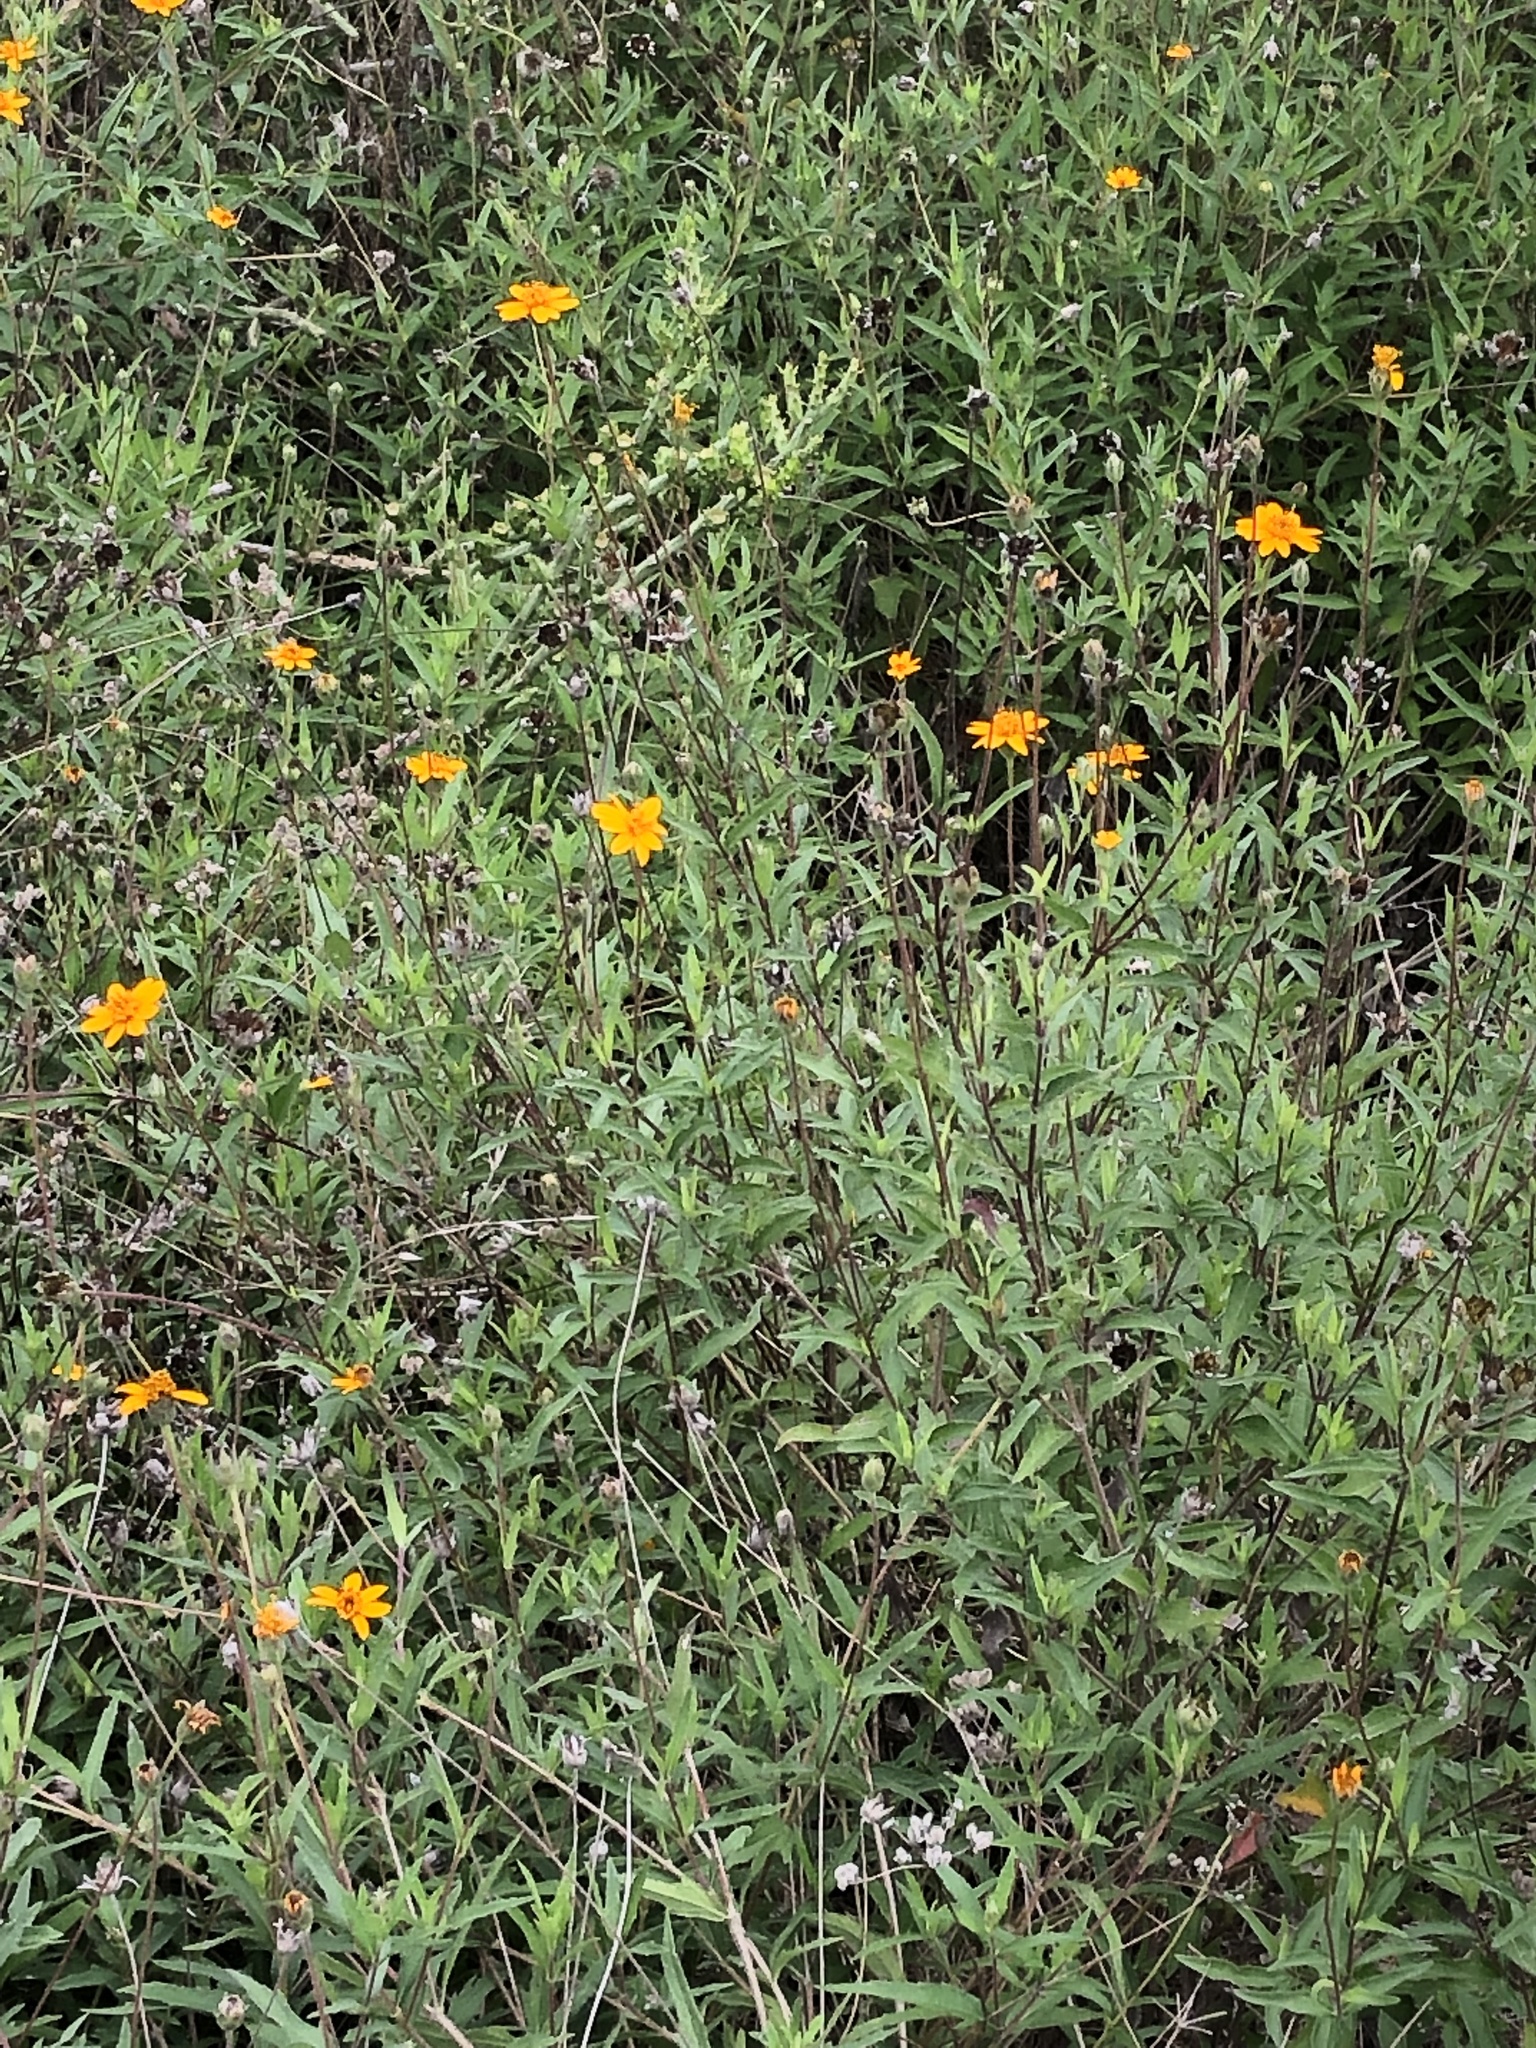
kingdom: Plantae
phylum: Tracheophyta
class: Magnoliopsida
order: Asterales
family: Asteraceae
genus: Wedelia
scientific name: Wedelia acapulcensis
